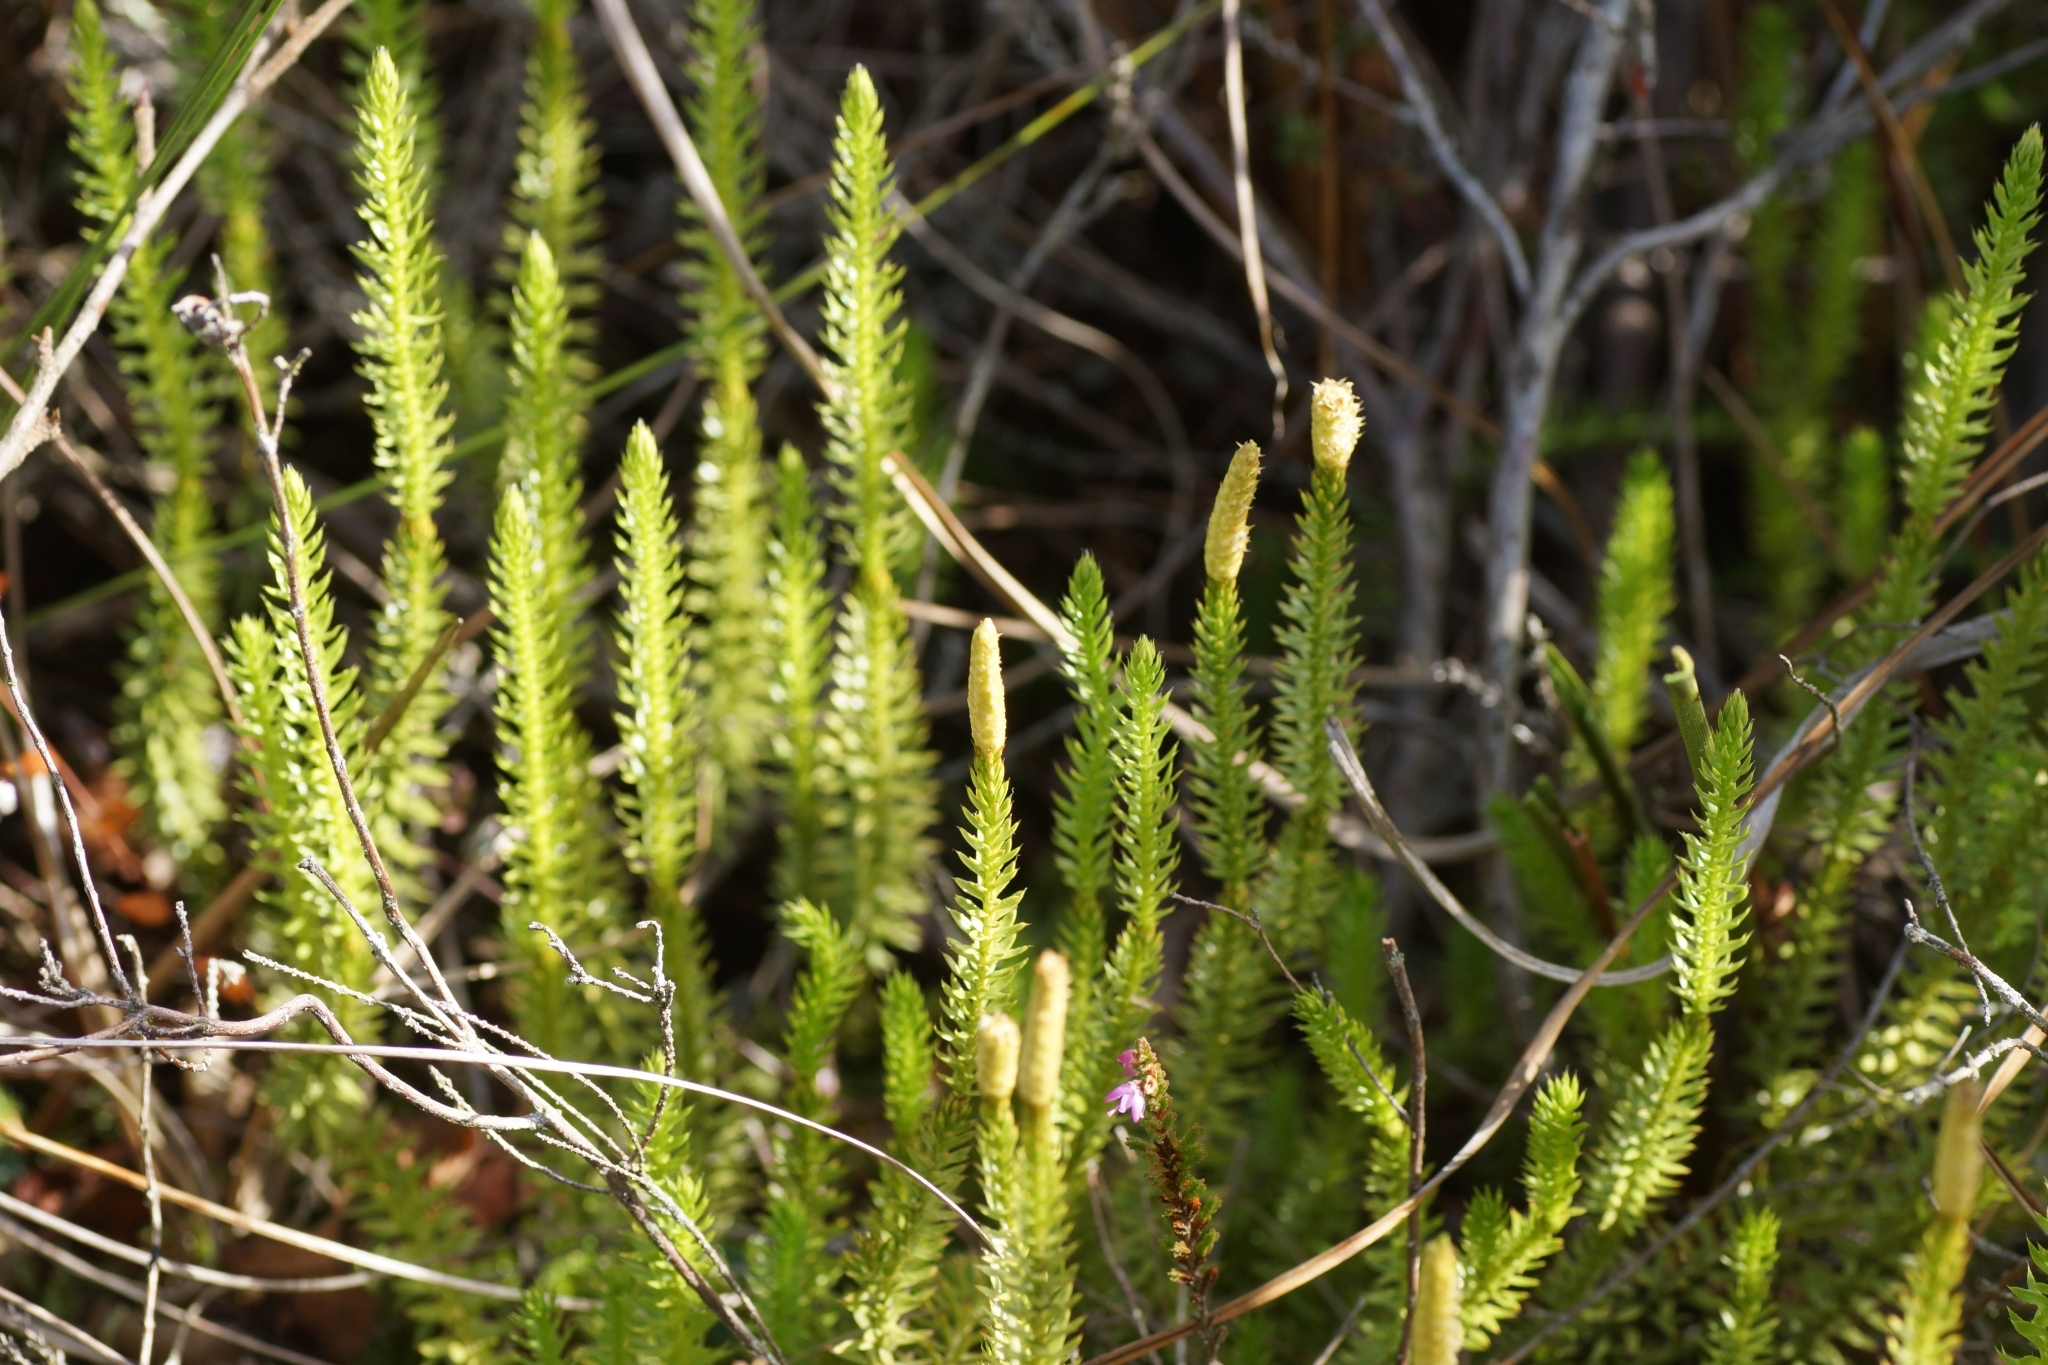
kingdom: Plantae
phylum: Tracheophyta
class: Lycopodiopsida
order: Lycopodiales
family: Lycopodiaceae
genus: Spinulum
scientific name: Spinulum annotinum
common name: Interrupted club-moss
